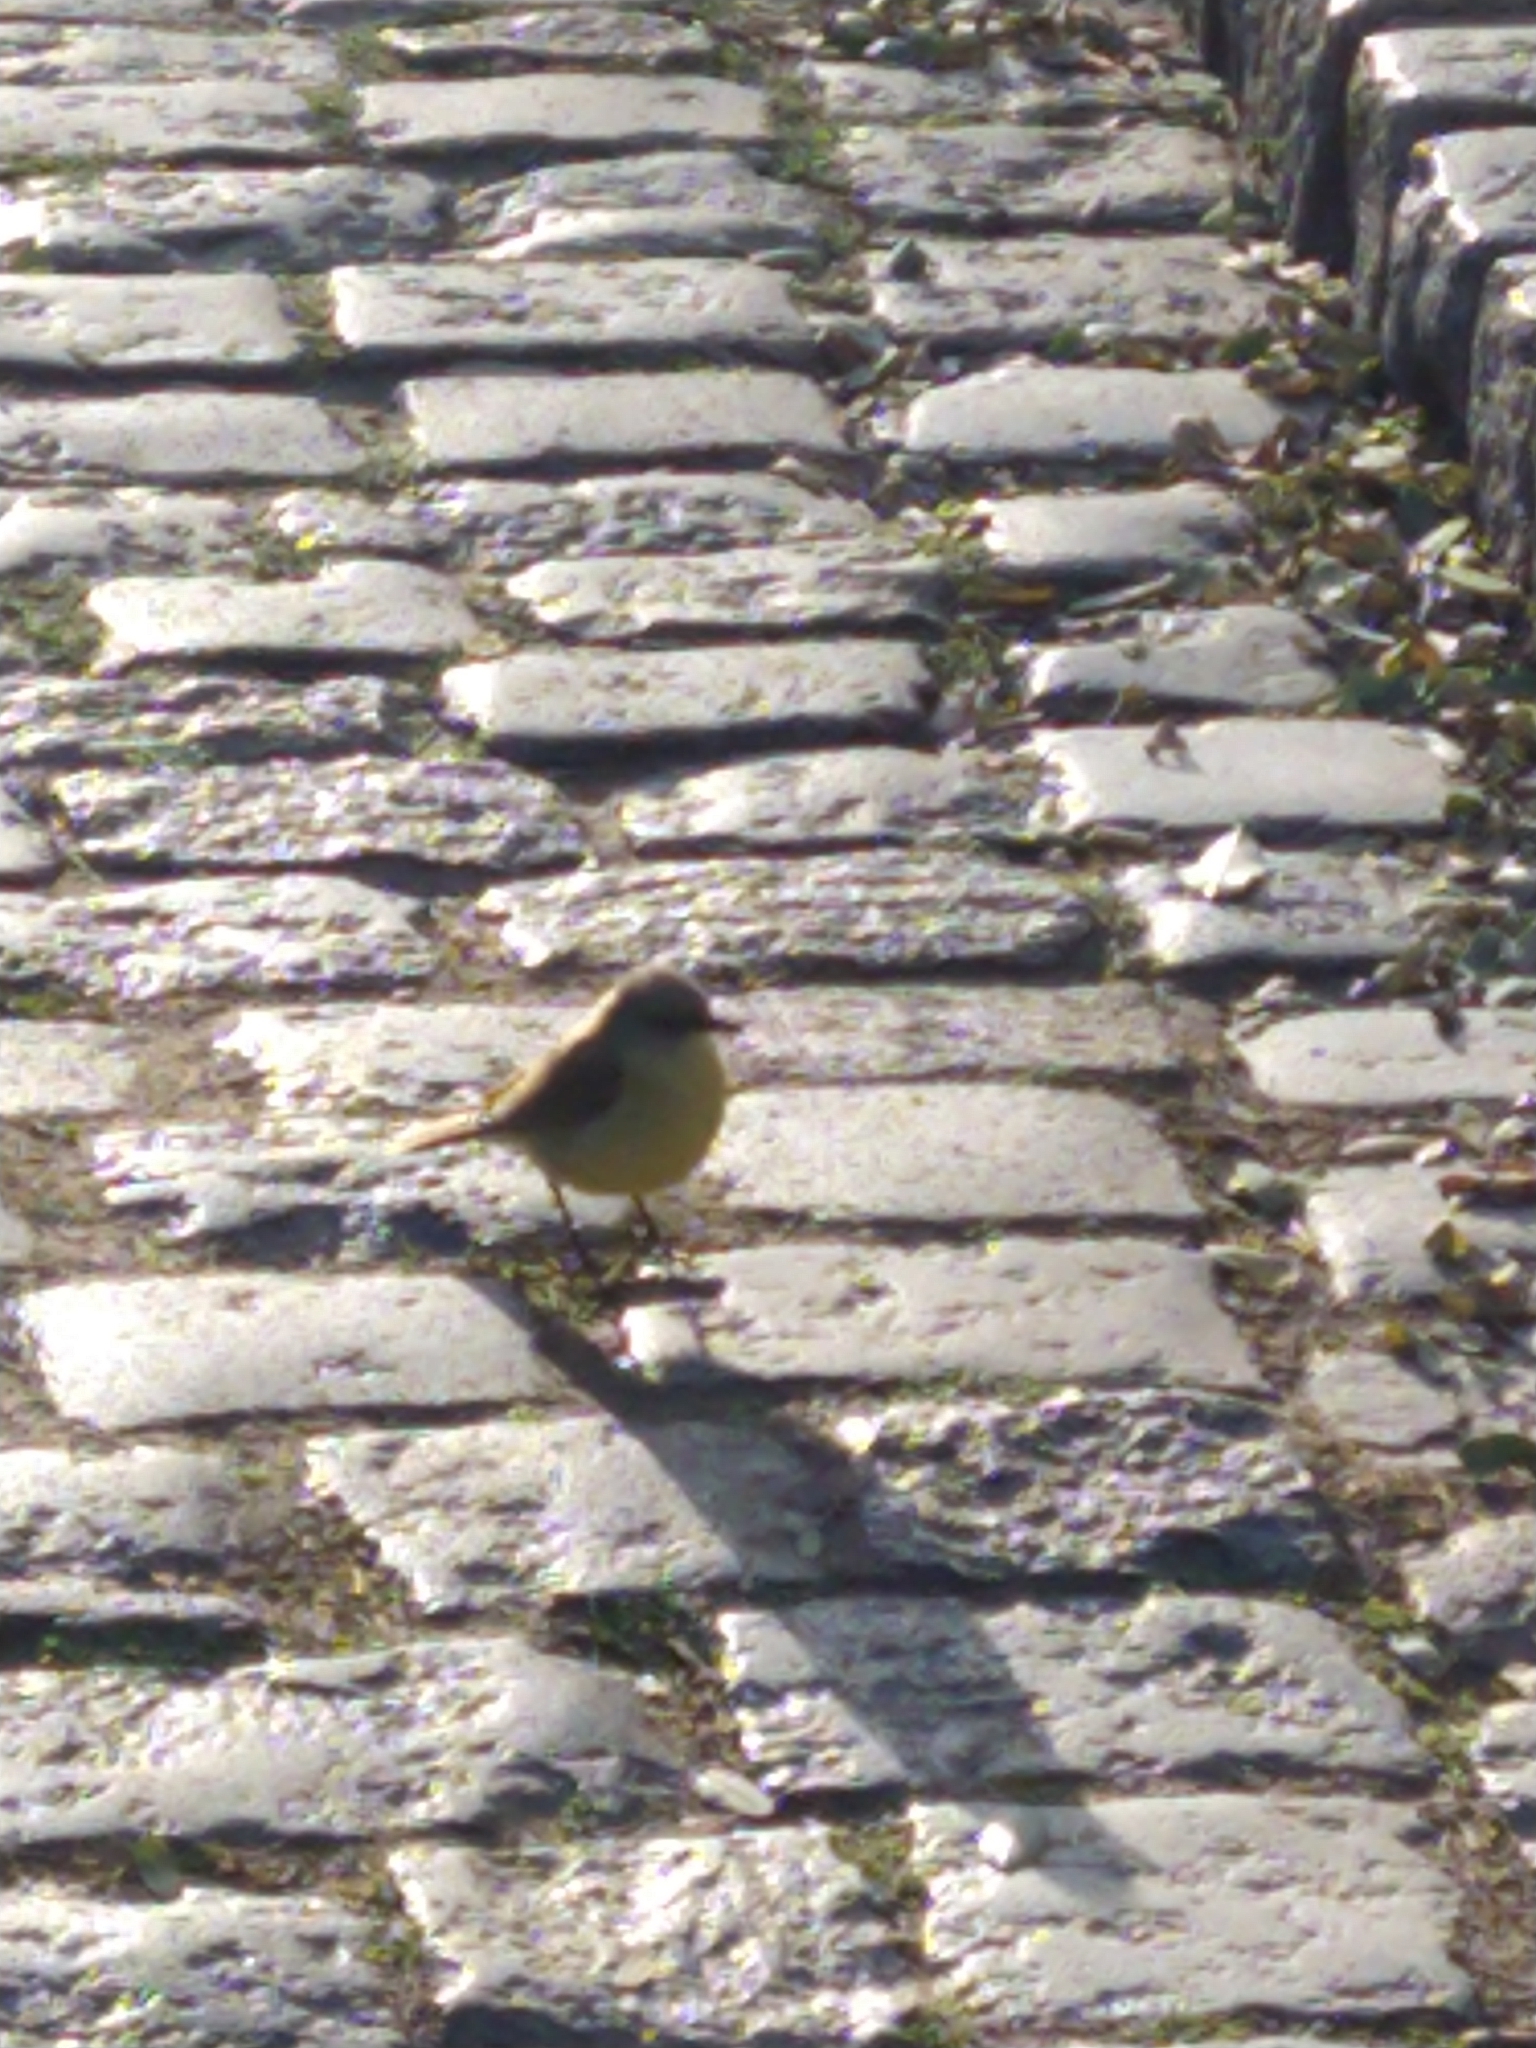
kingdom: Animalia
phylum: Chordata
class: Aves
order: Passeriformes
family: Tyrannidae
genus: Machetornis
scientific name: Machetornis rixosa
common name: Cattle tyrant
